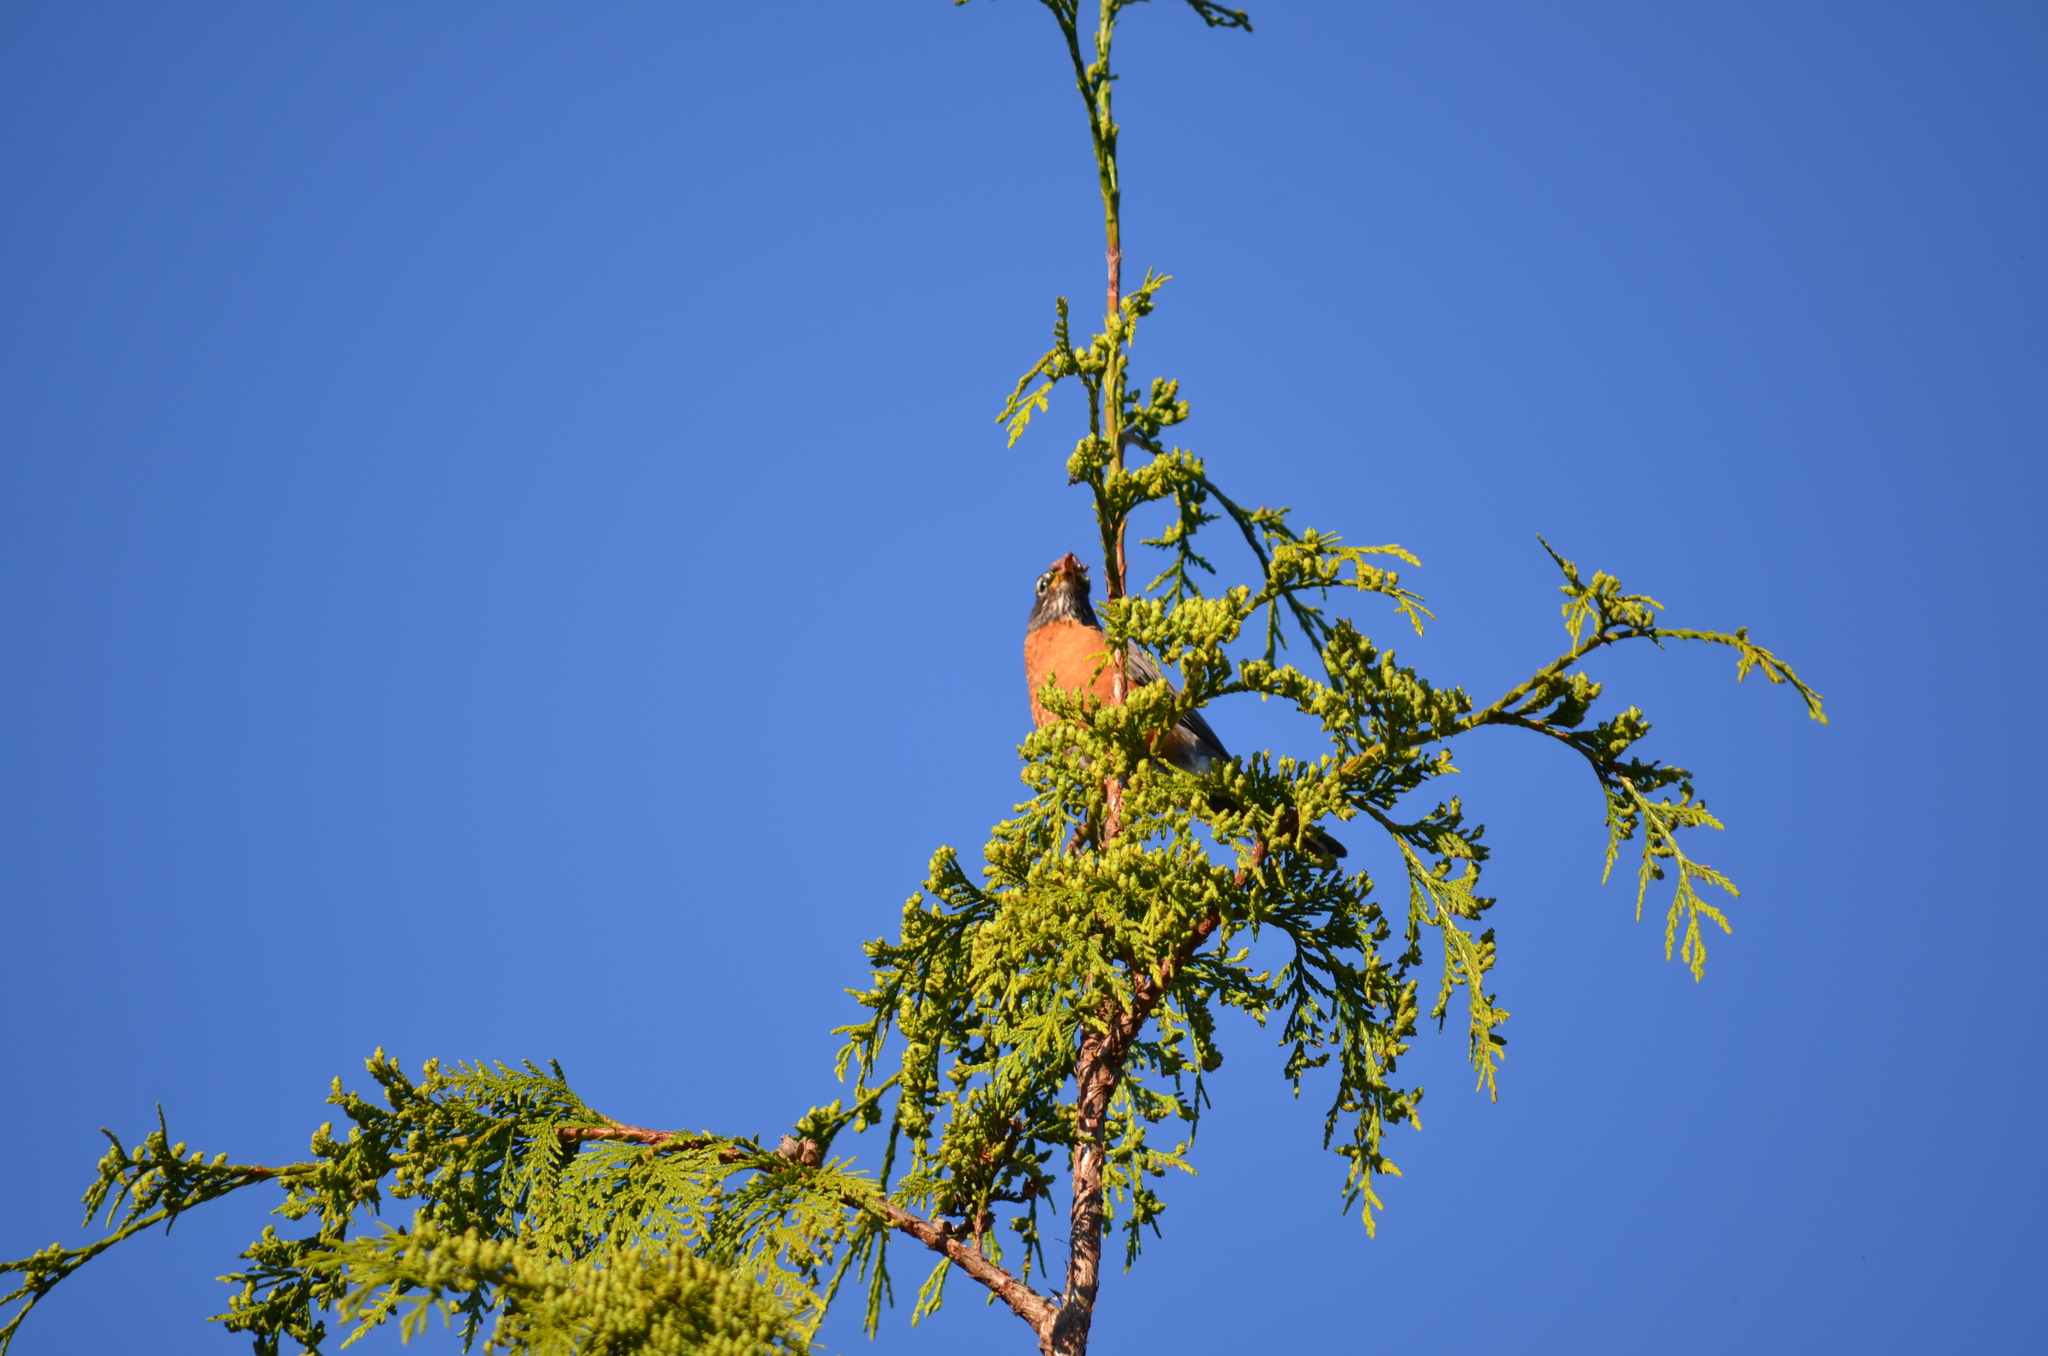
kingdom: Animalia
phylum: Chordata
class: Aves
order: Passeriformes
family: Turdidae
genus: Turdus
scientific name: Turdus migratorius
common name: American robin
